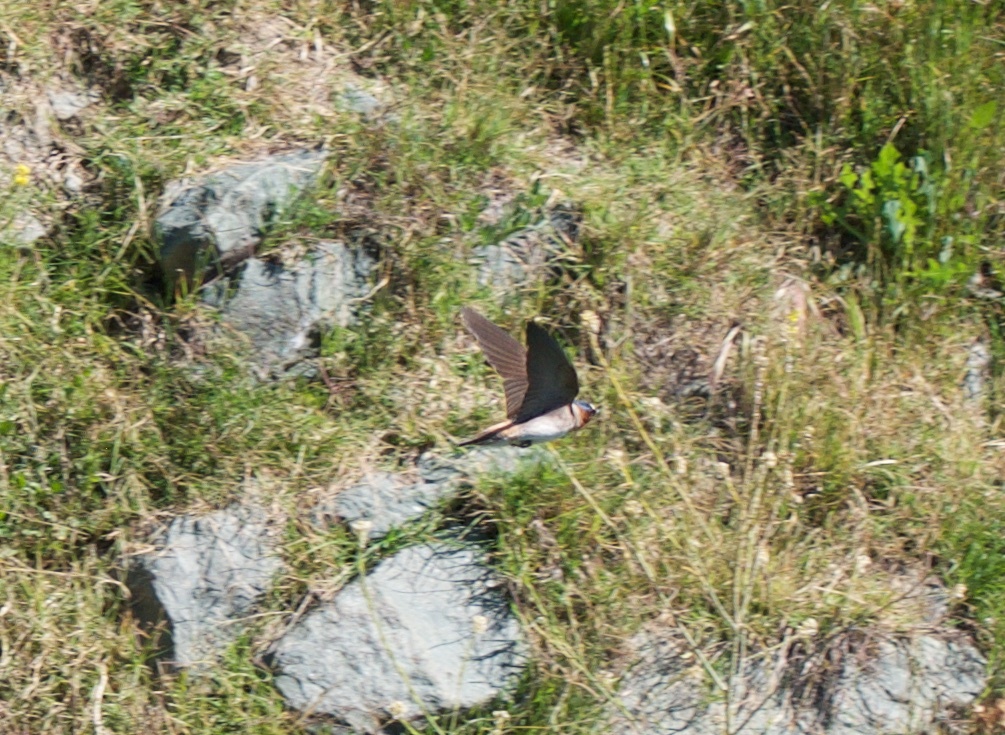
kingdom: Animalia
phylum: Chordata
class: Aves
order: Passeriformes
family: Hirundinidae
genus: Petrochelidon
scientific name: Petrochelidon pyrrhonota
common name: American cliff swallow
